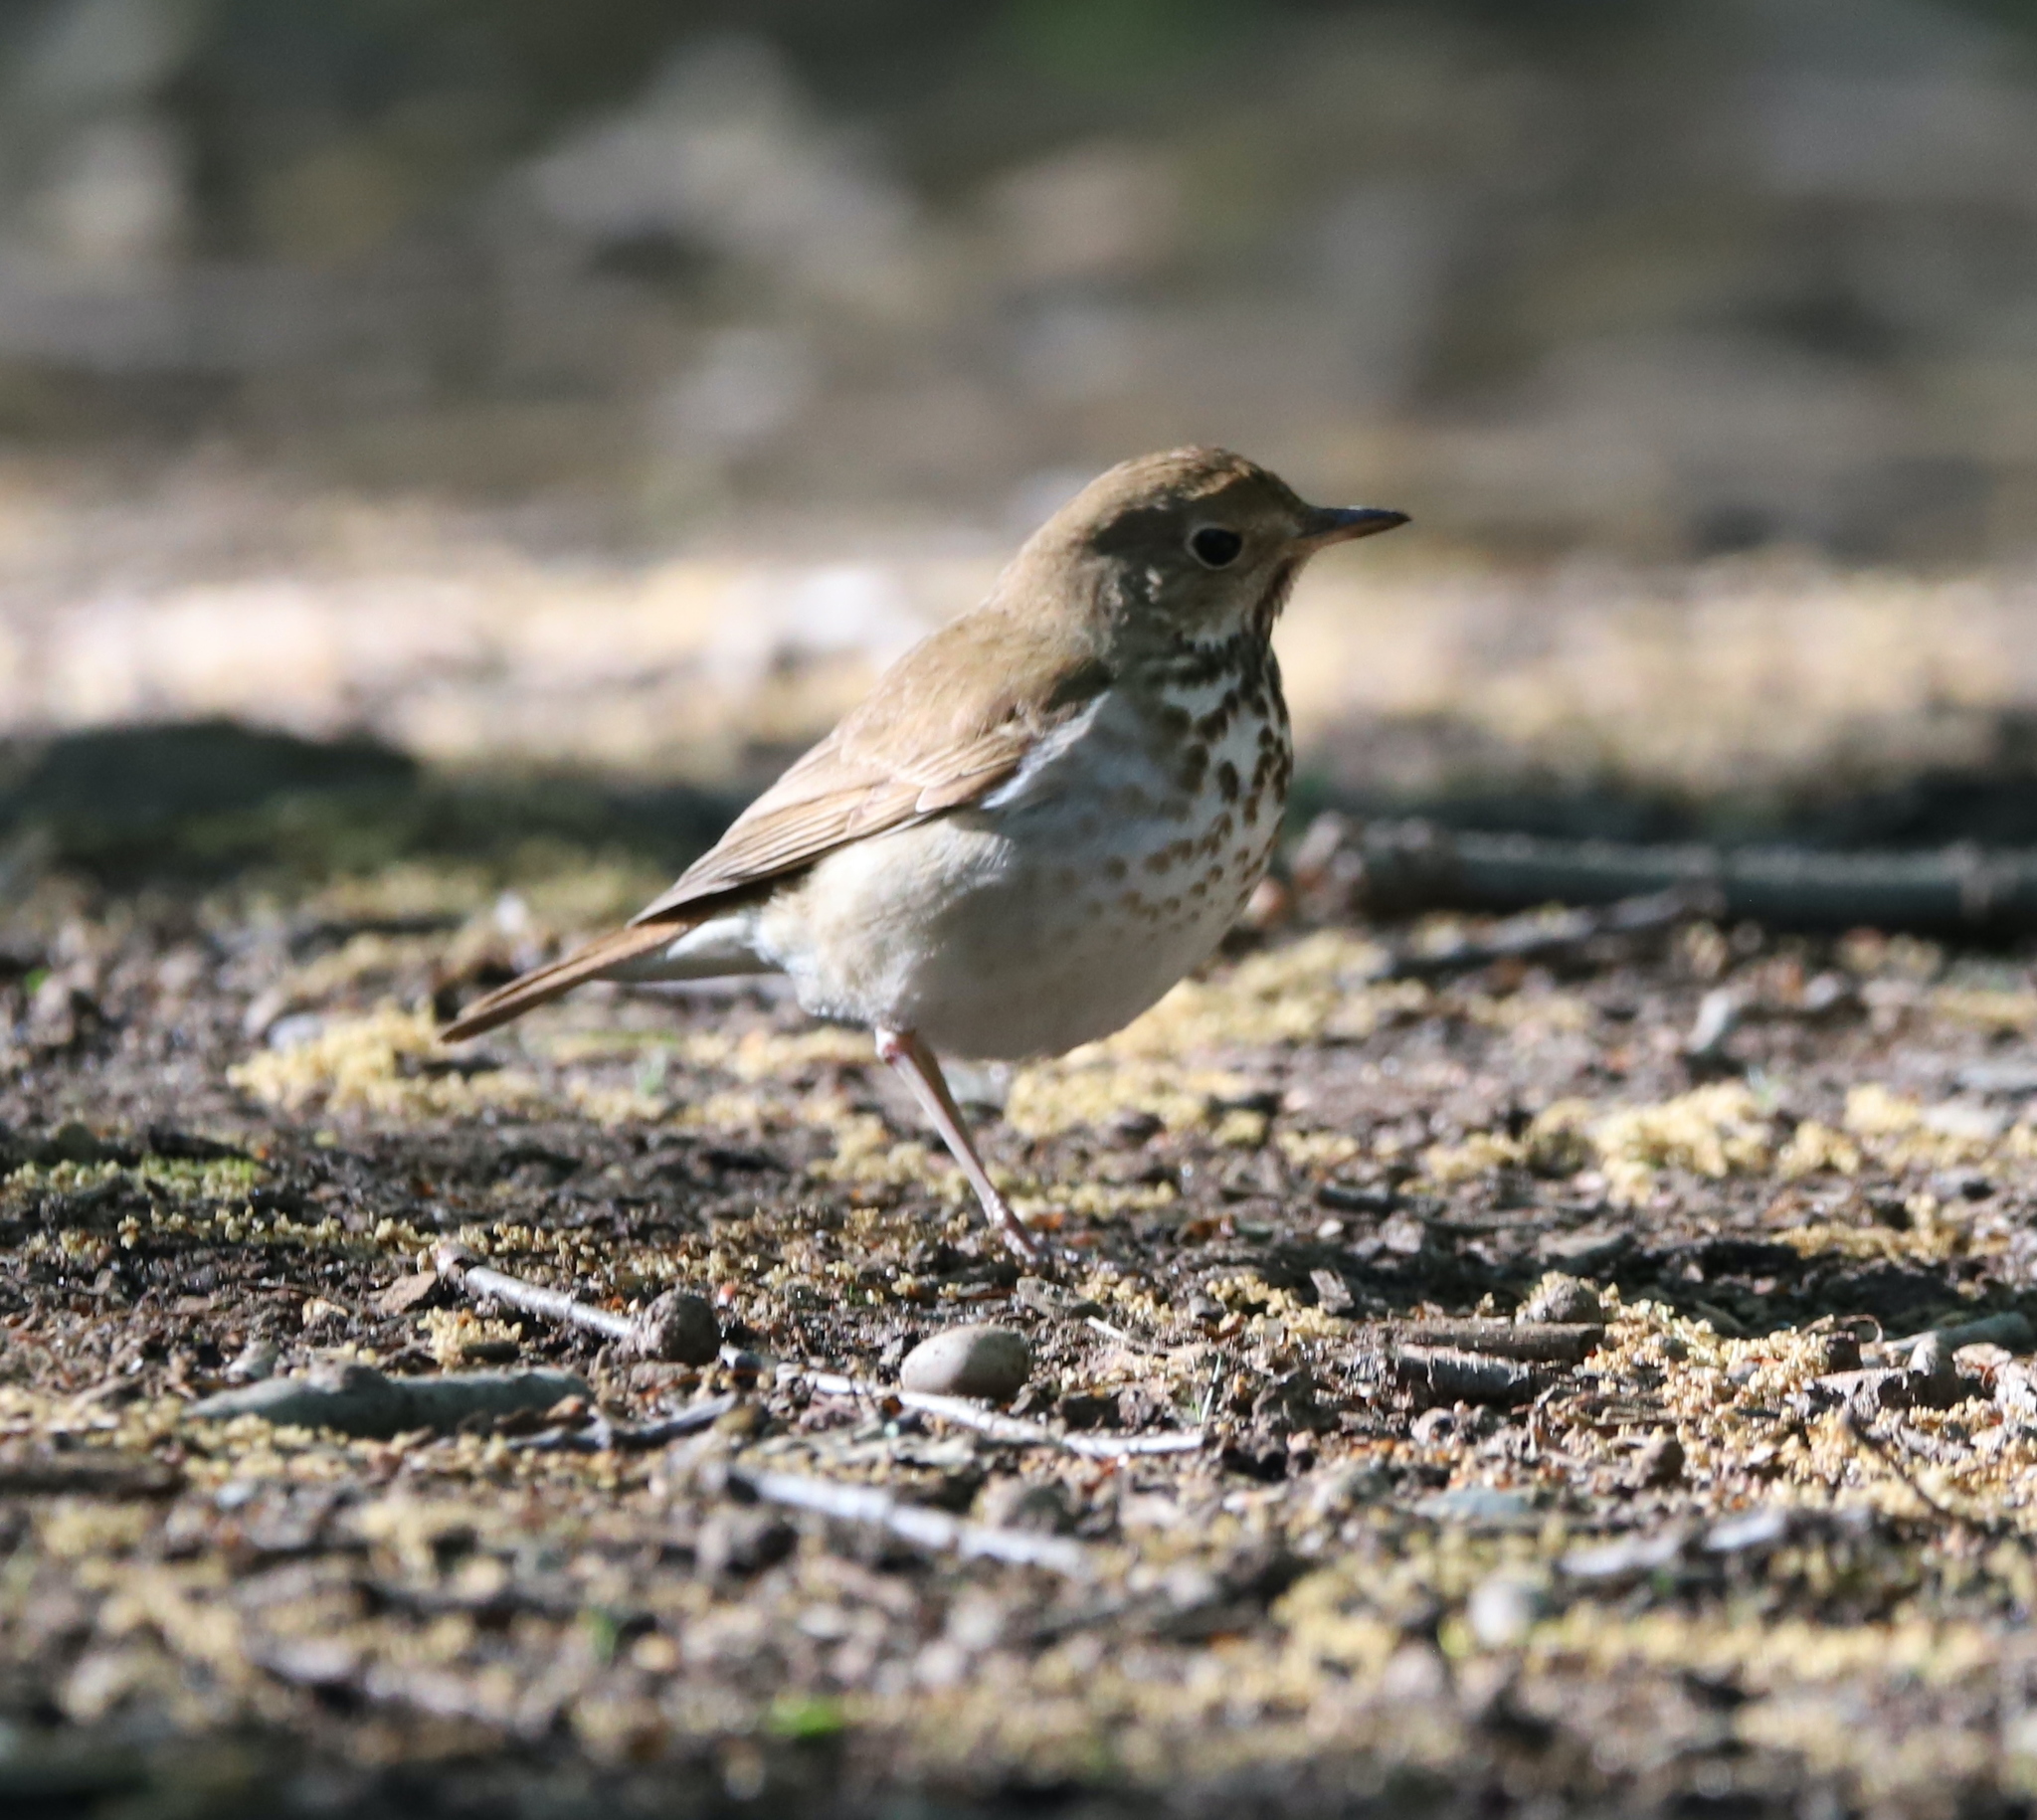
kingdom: Animalia
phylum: Chordata
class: Aves
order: Passeriformes
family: Turdidae
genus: Catharus
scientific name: Catharus guttatus
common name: Hermit thrush
